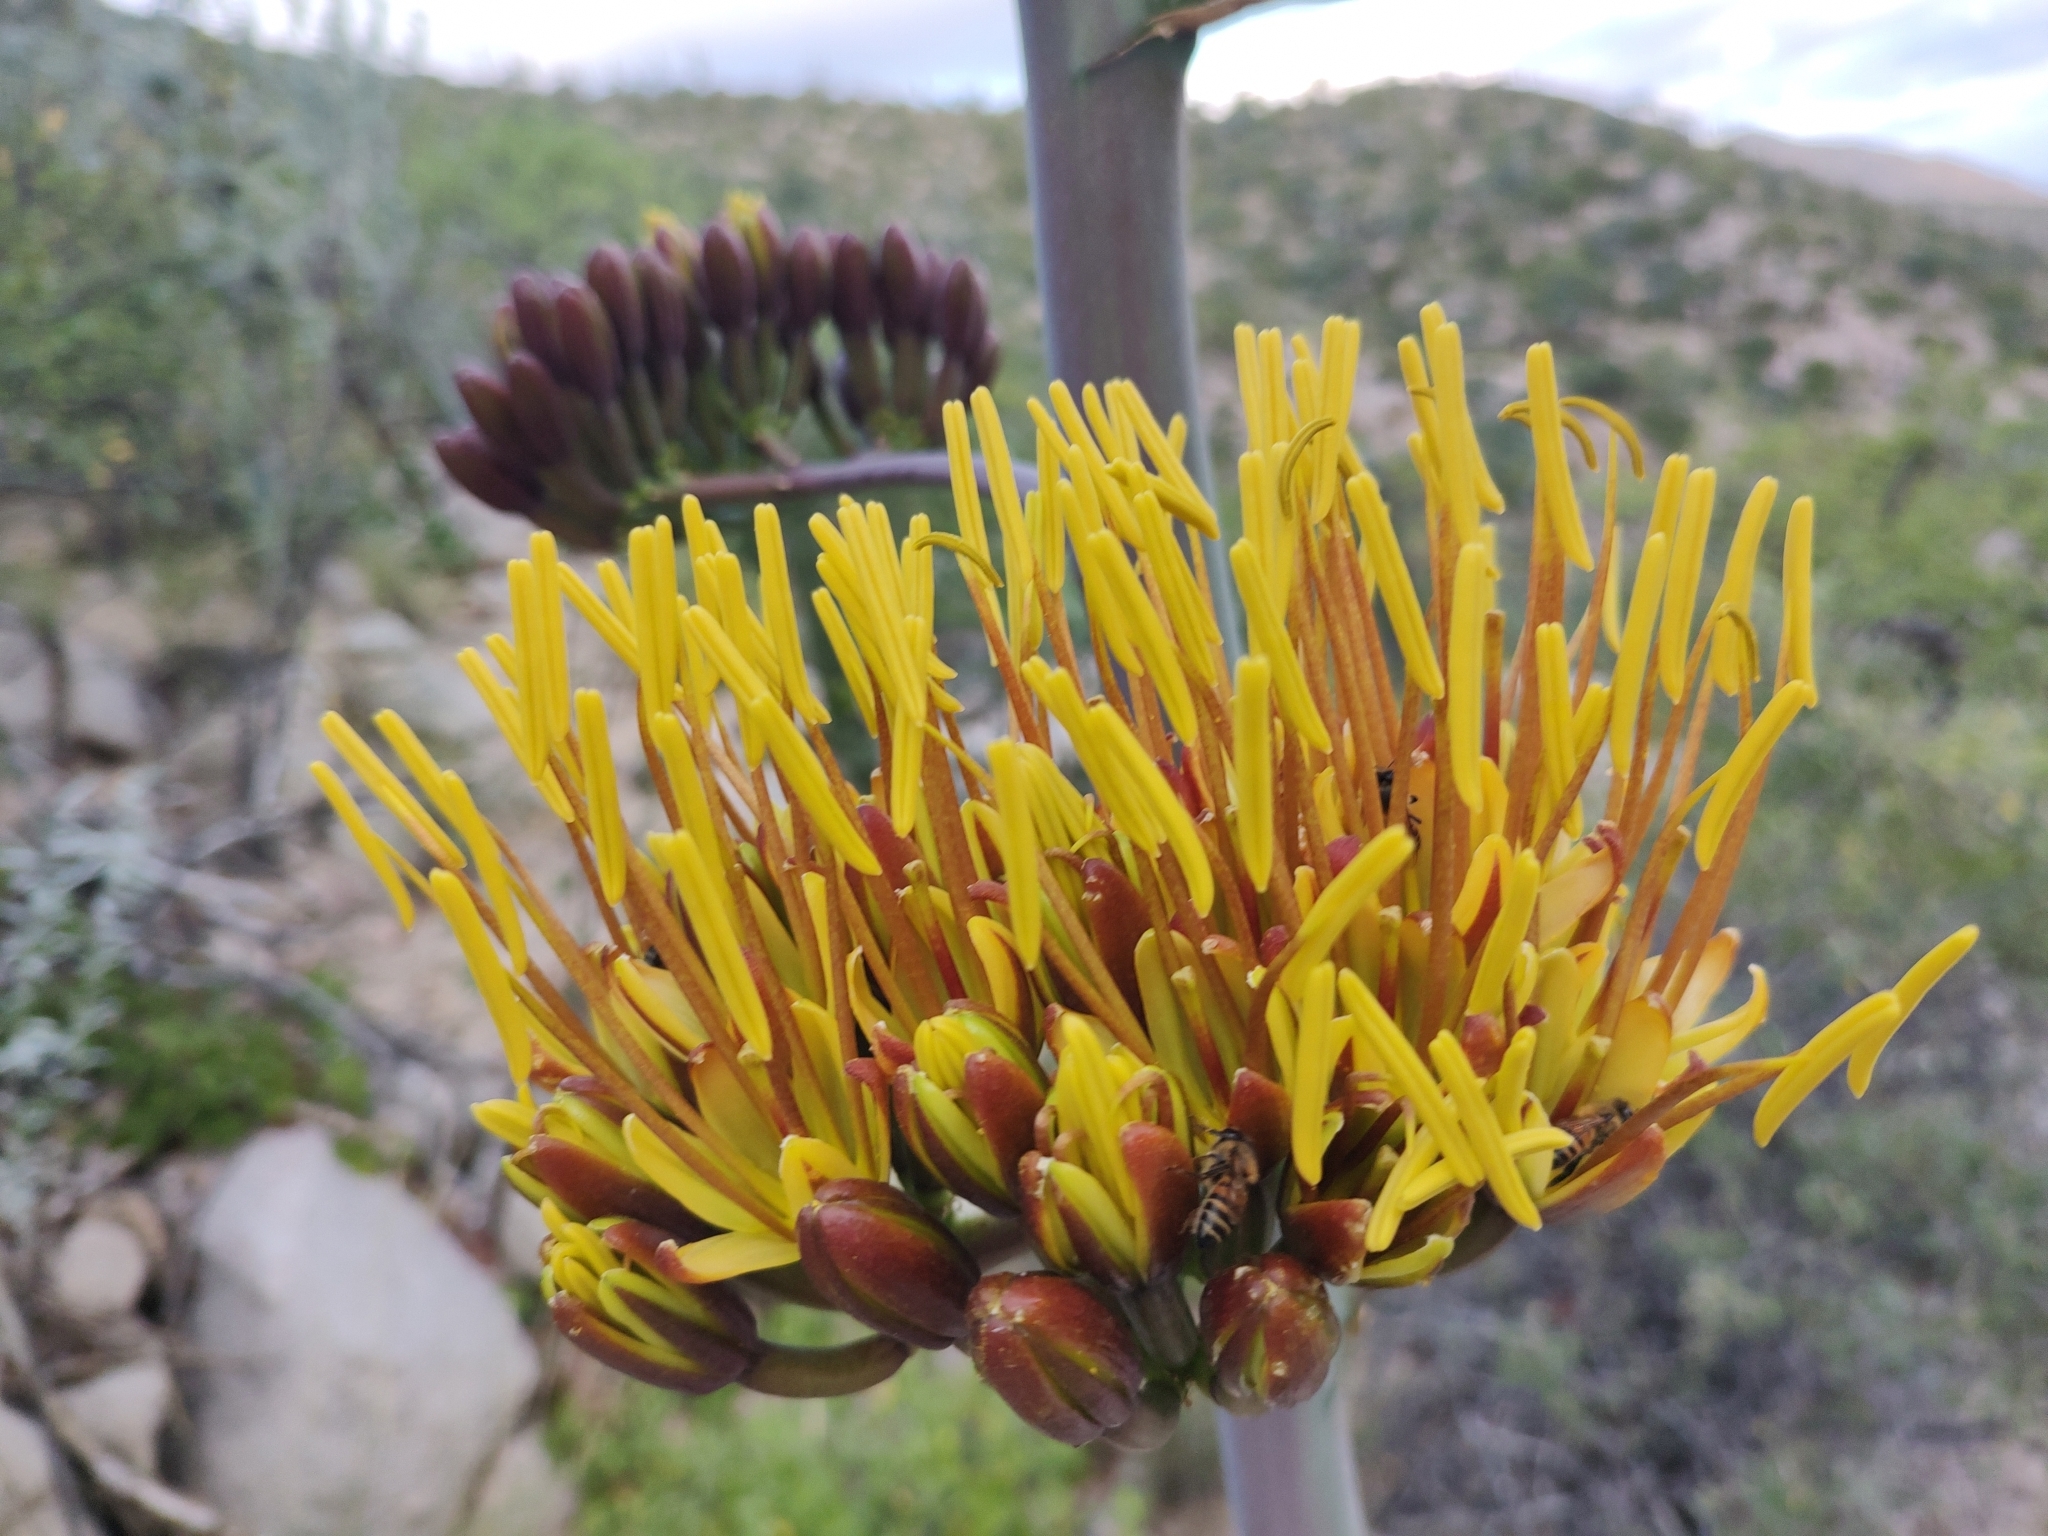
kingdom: Plantae
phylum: Tracheophyta
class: Liliopsida
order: Asparagales
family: Asparagaceae
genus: Agave
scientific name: Agave aurea
